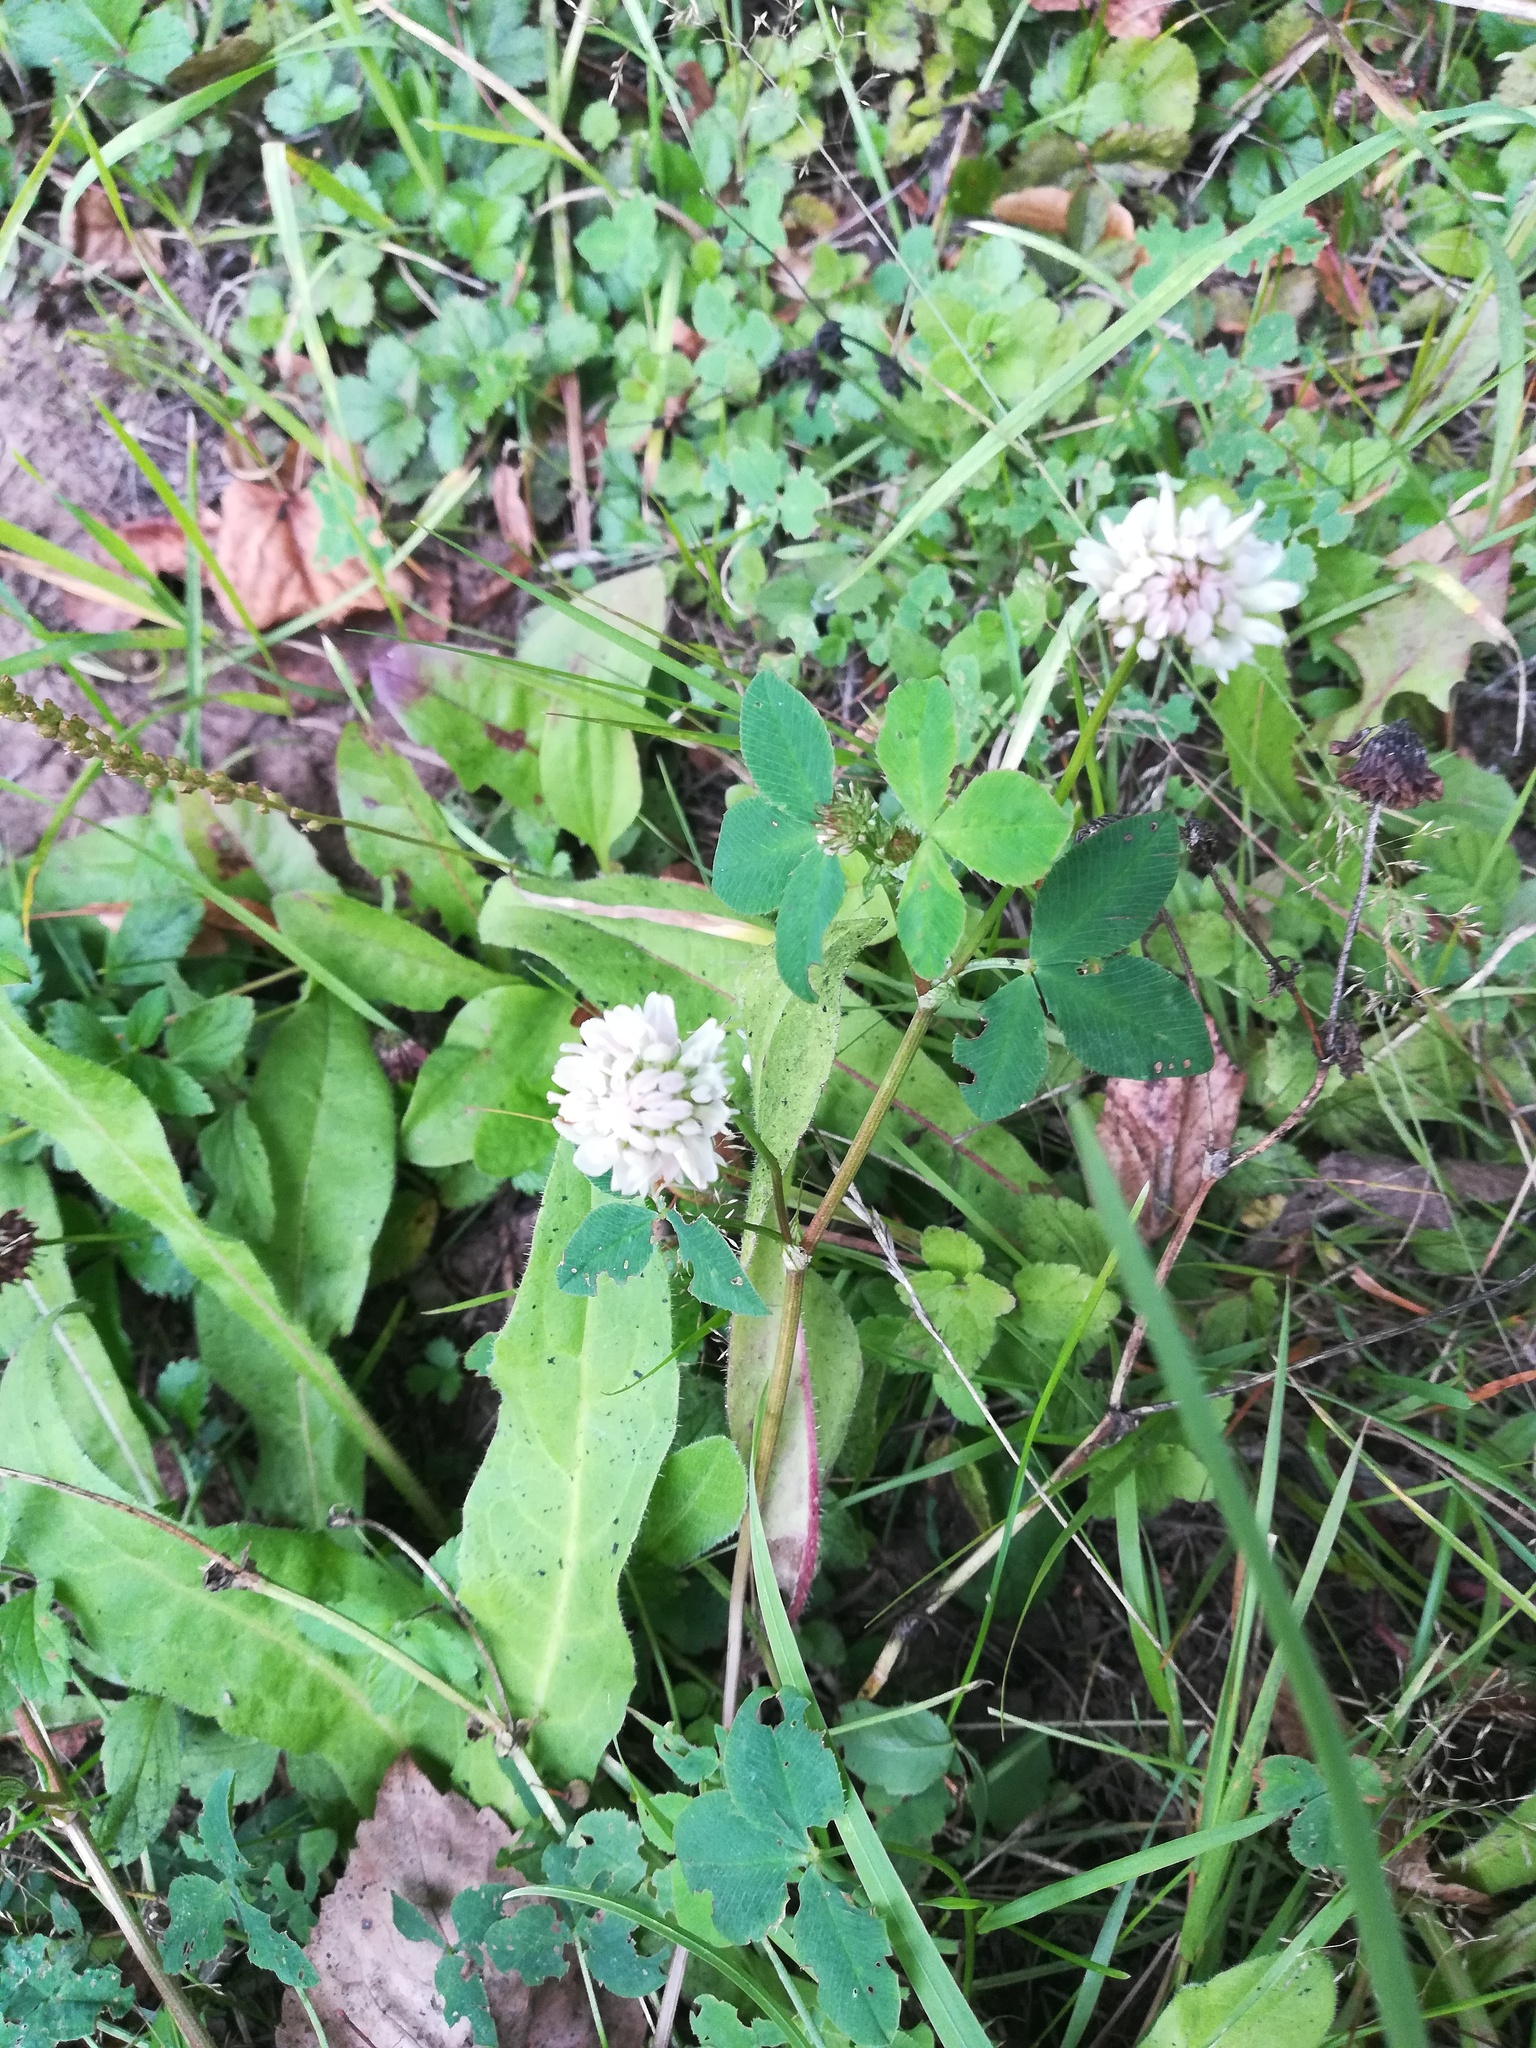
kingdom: Plantae
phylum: Tracheophyta
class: Magnoliopsida
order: Fabales
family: Fabaceae
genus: Trifolium
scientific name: Trifolium hybridum
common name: Alsike clover
